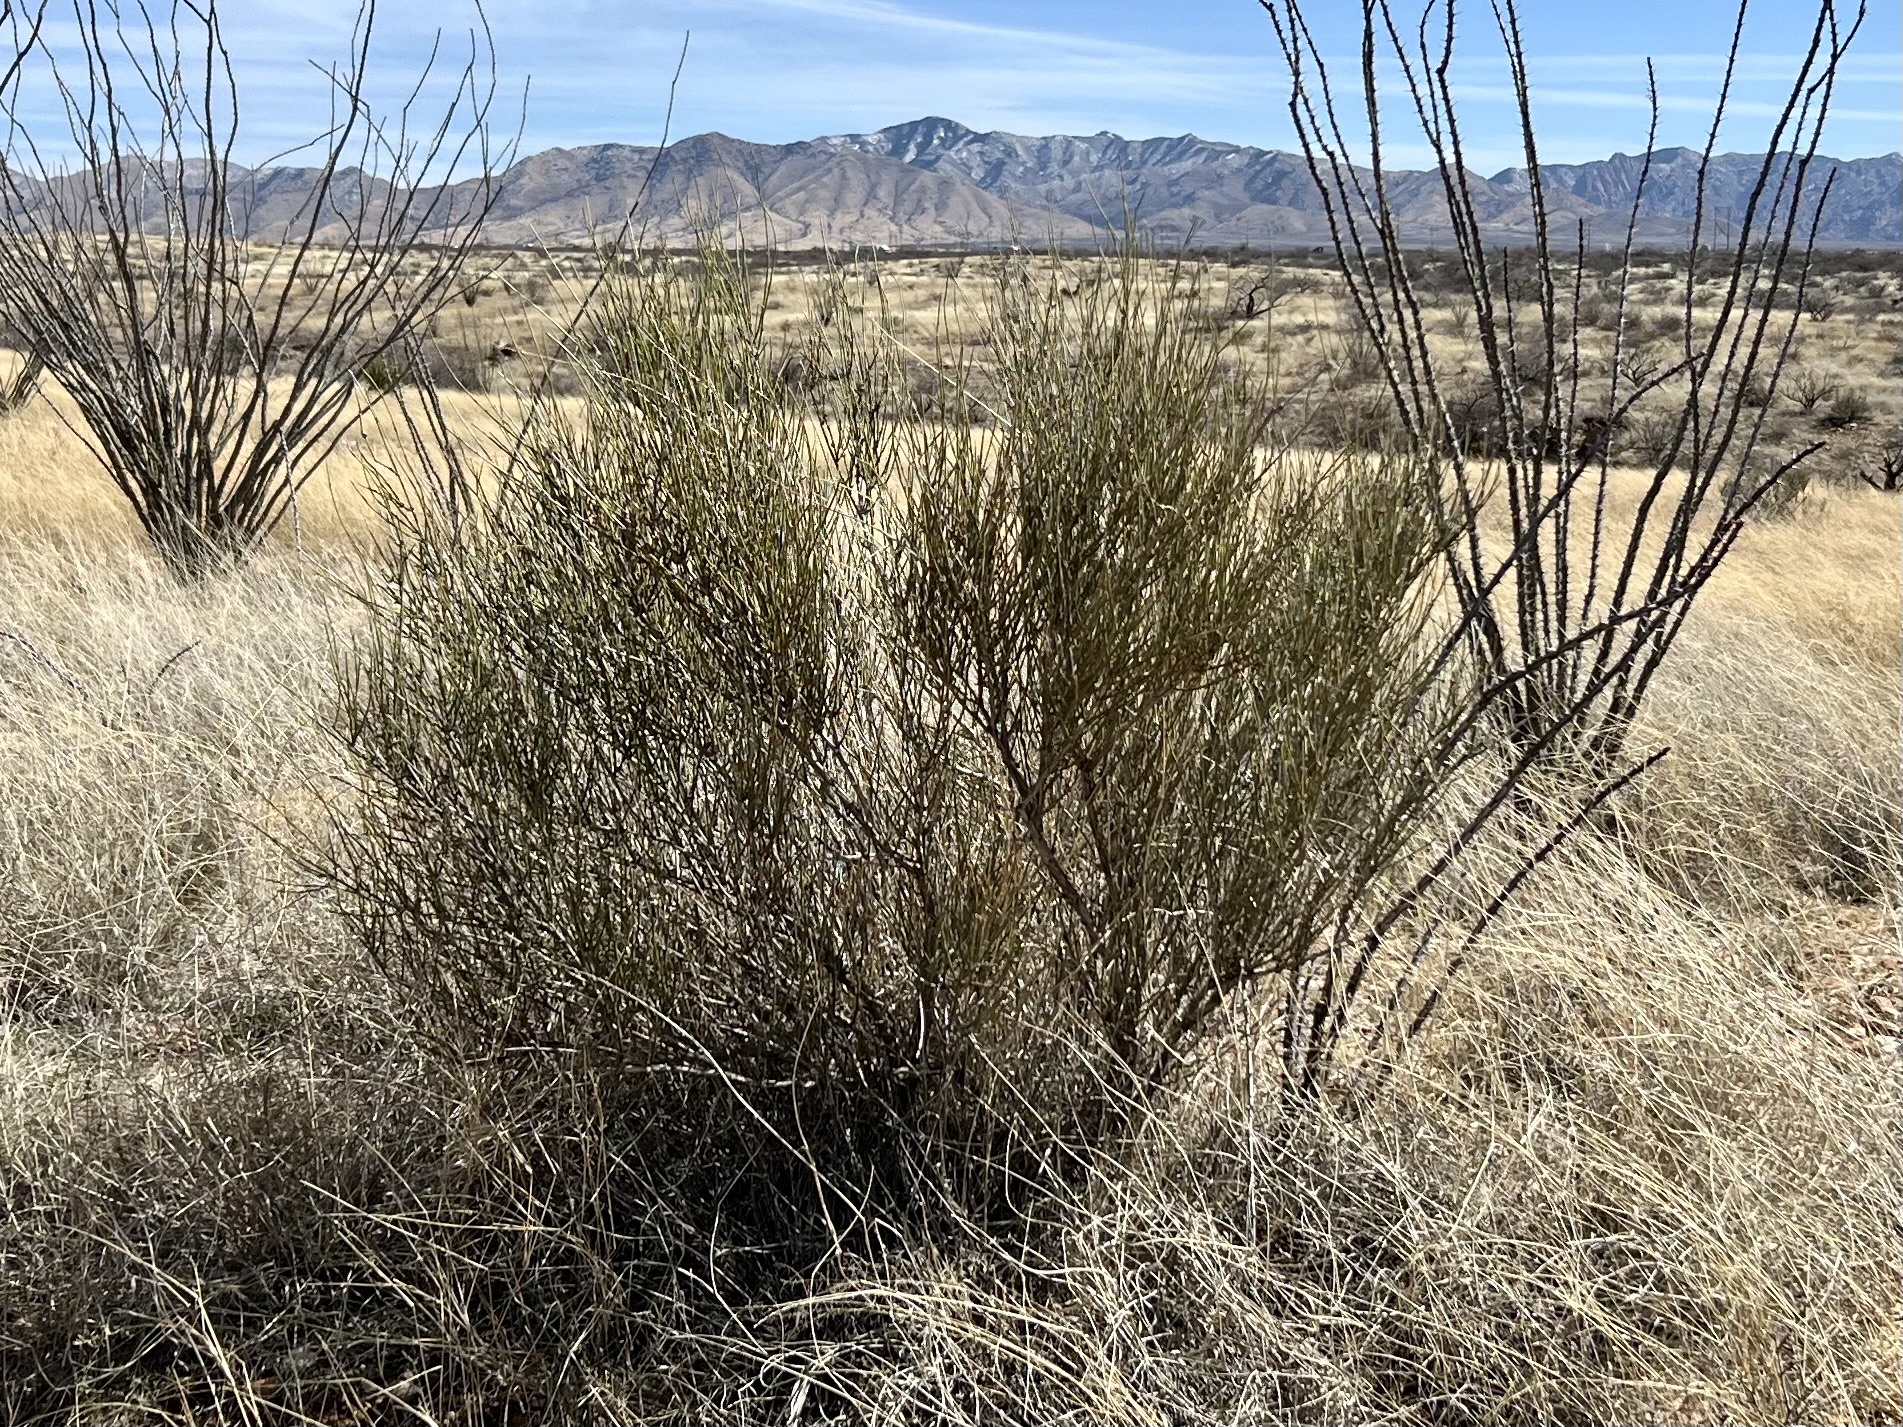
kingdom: Plantae
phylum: Tracheophyta
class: Gnetopsida
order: Ephedrales
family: Ephedraceae
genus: Ephedra
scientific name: Ephedra trifurca
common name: Mexican-tea
